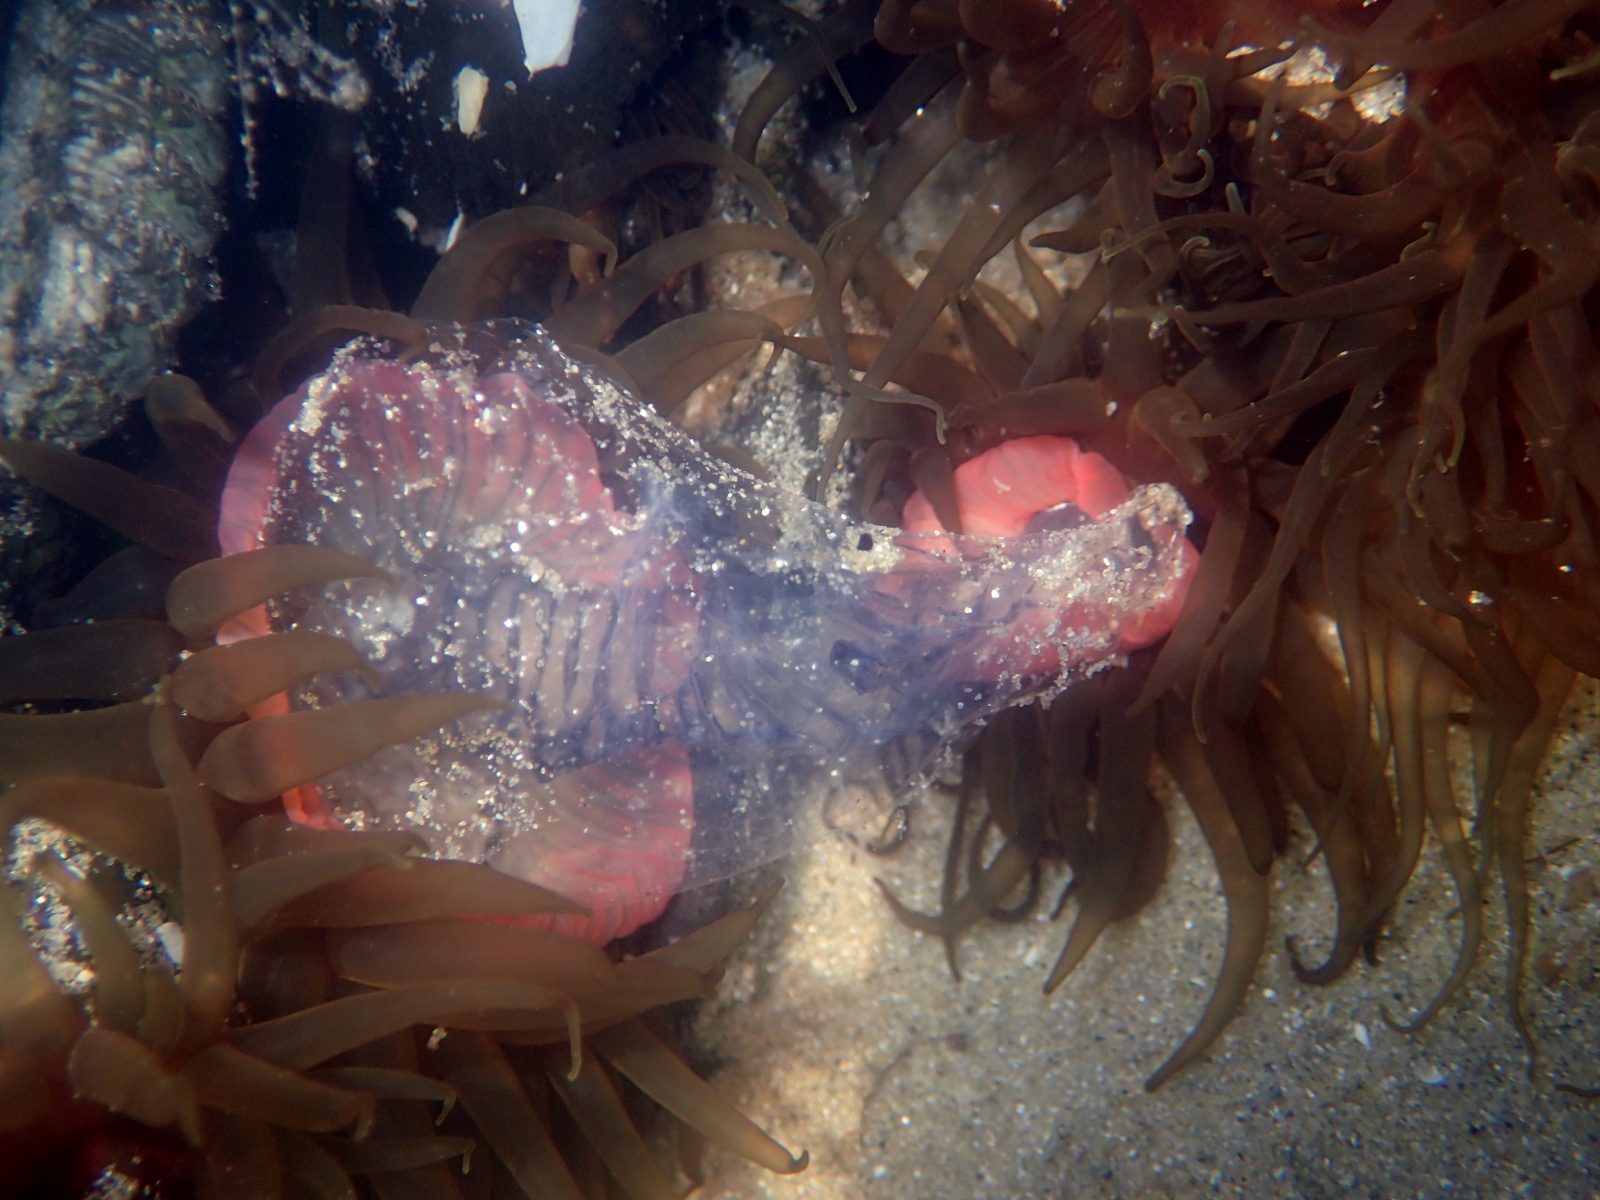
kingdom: Animalia
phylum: Cnidaria
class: Anthozoa
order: Actiniaria
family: Actiniidae
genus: Isactinia
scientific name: Isactinia olivacea
